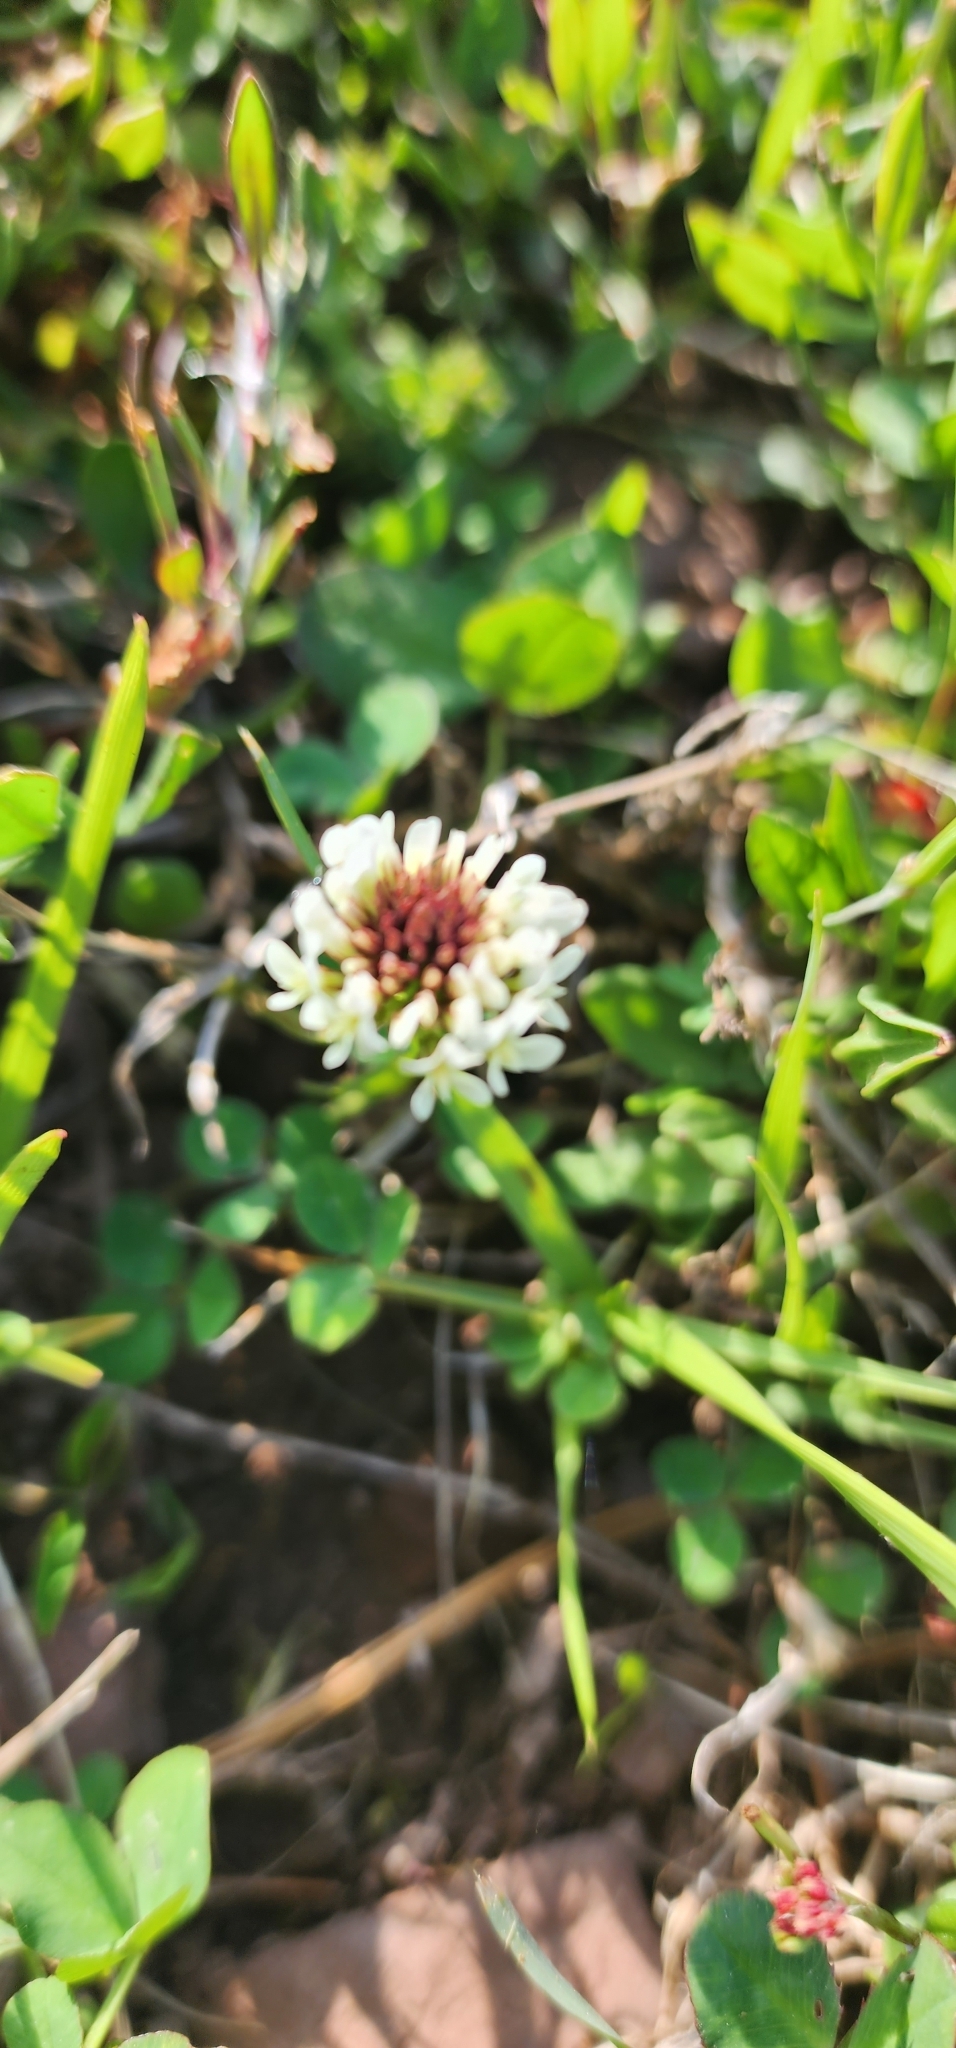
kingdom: Plantae
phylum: Tracheophyta
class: Magnoliopsida
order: Fabales
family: Fabaceae
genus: Trifolium
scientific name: Trifolium repens
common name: White clover
